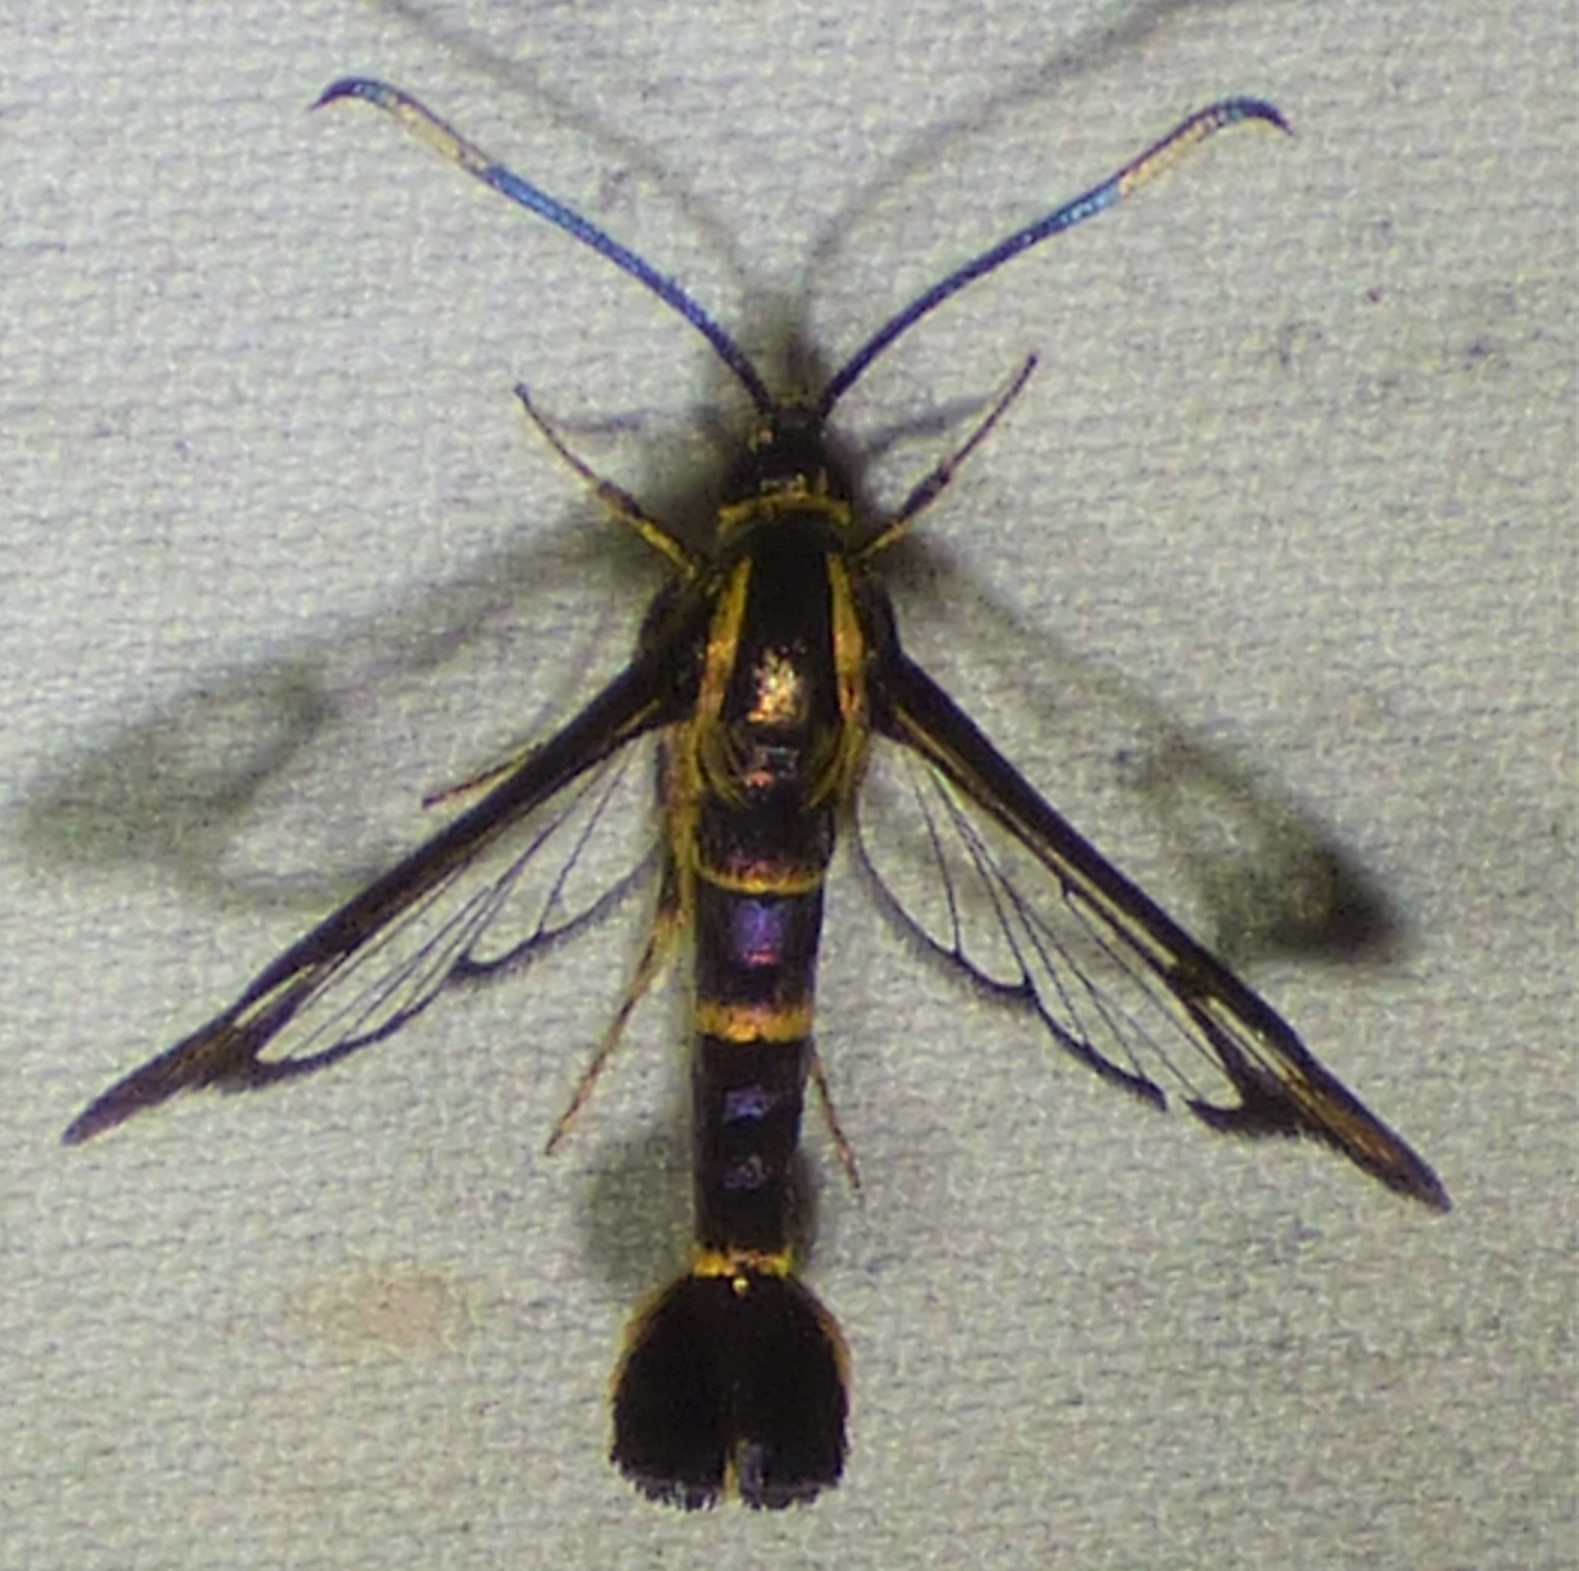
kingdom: Animalia
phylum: Arthropoda
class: Insecta
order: Lepidoptera
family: Sesiidae
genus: Carmenta
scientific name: Carmenta bassiformis
